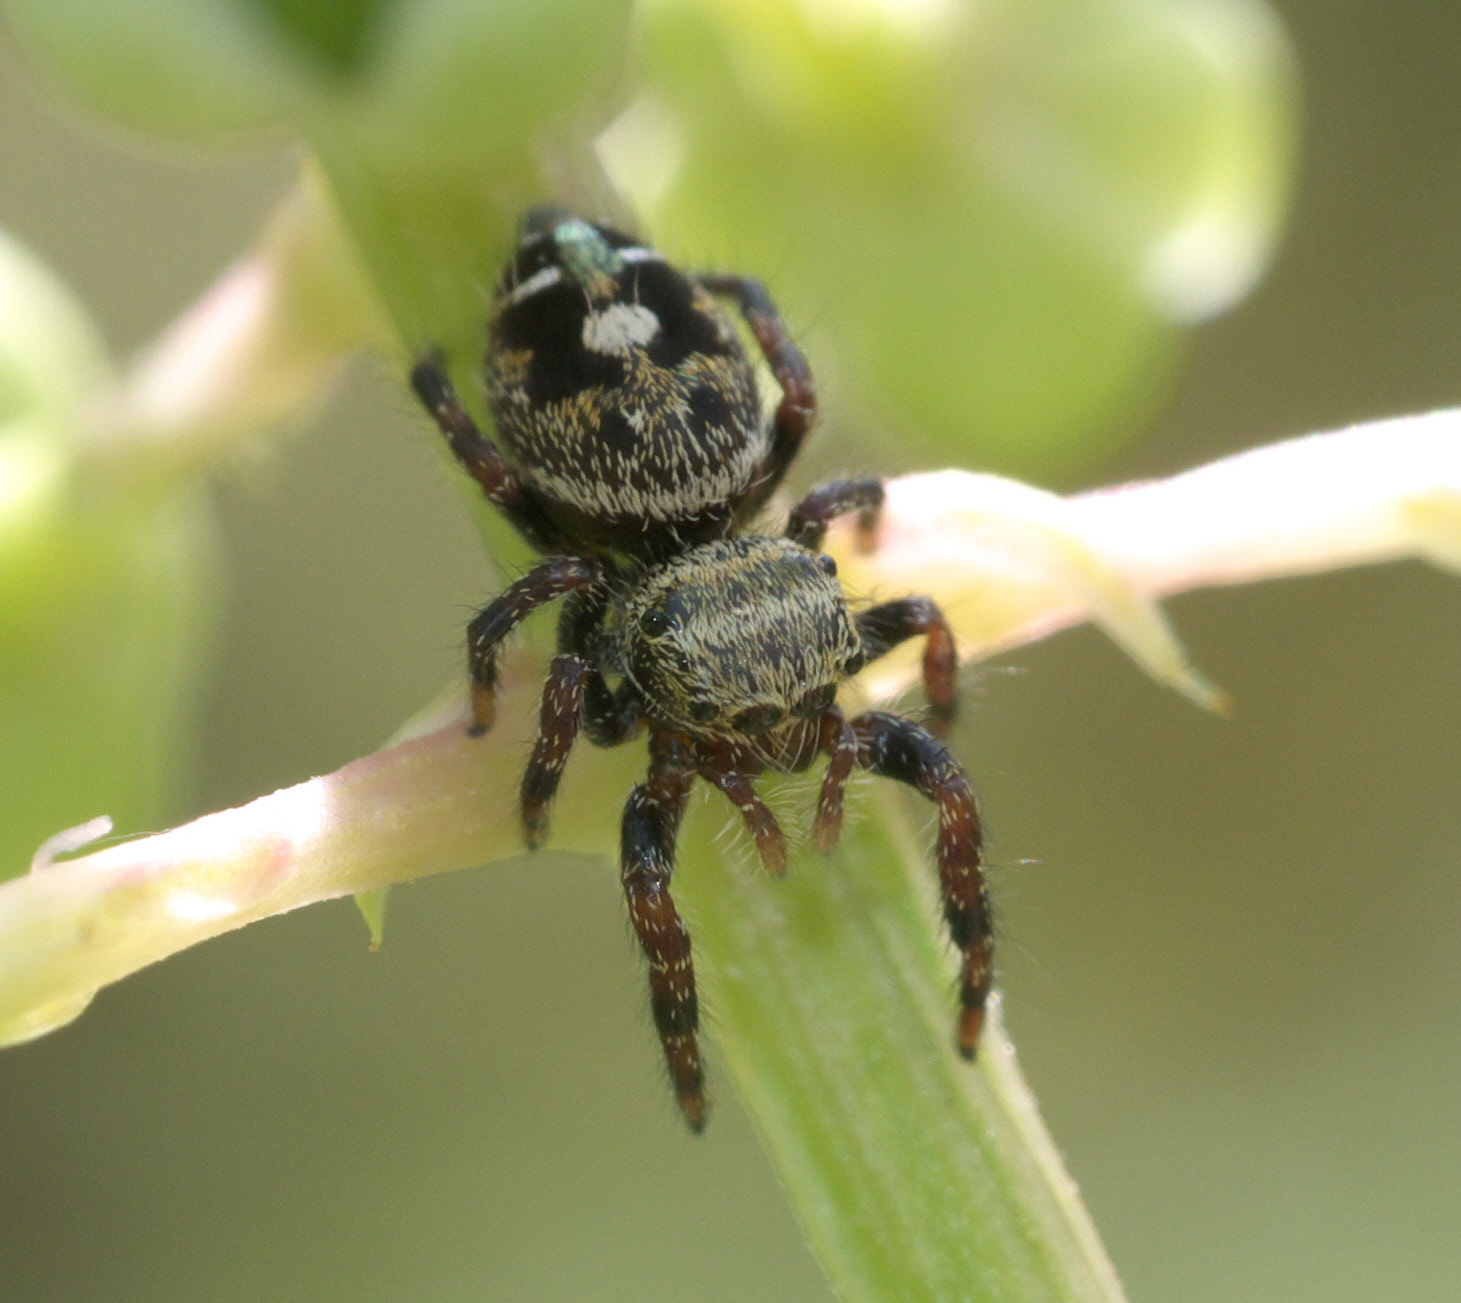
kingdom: Animalia
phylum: Arthropoda
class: Arachnida
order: Araneae
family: Salticidae
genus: Phidippus
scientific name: Phidippus audax
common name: Bold jumper
